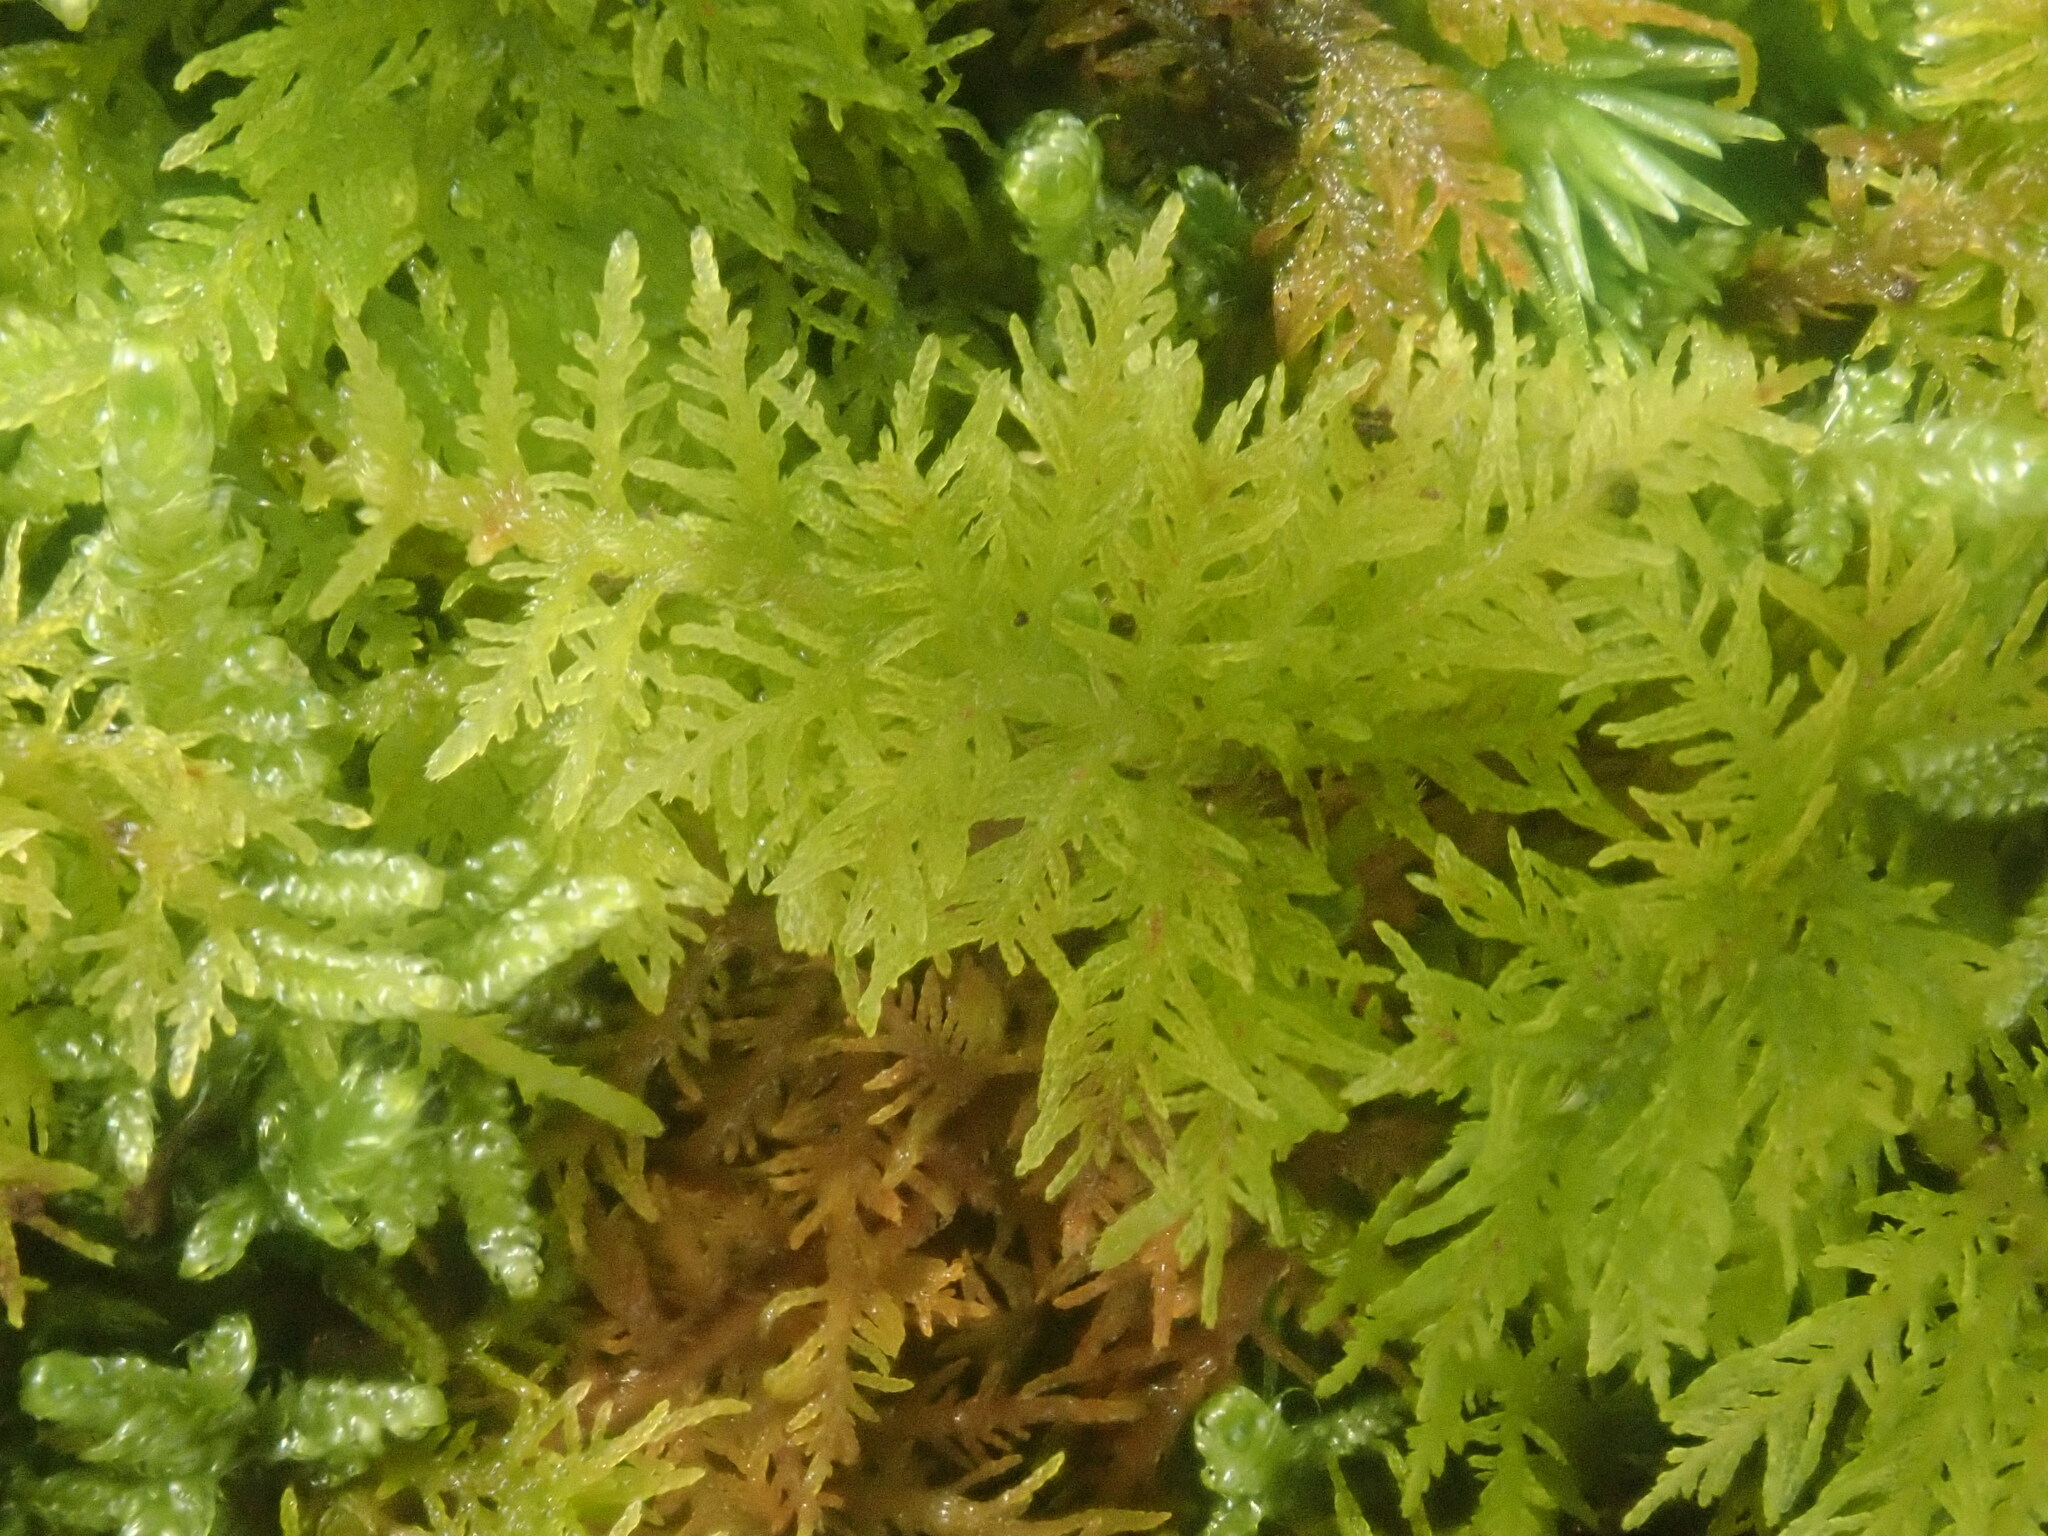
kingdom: Plantae
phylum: Bryophyta
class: Bryopsida
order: Hypnales
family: Thuidiaceae
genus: Thuidium
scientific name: Thuidium delicatulum
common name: Delicate fern moss
